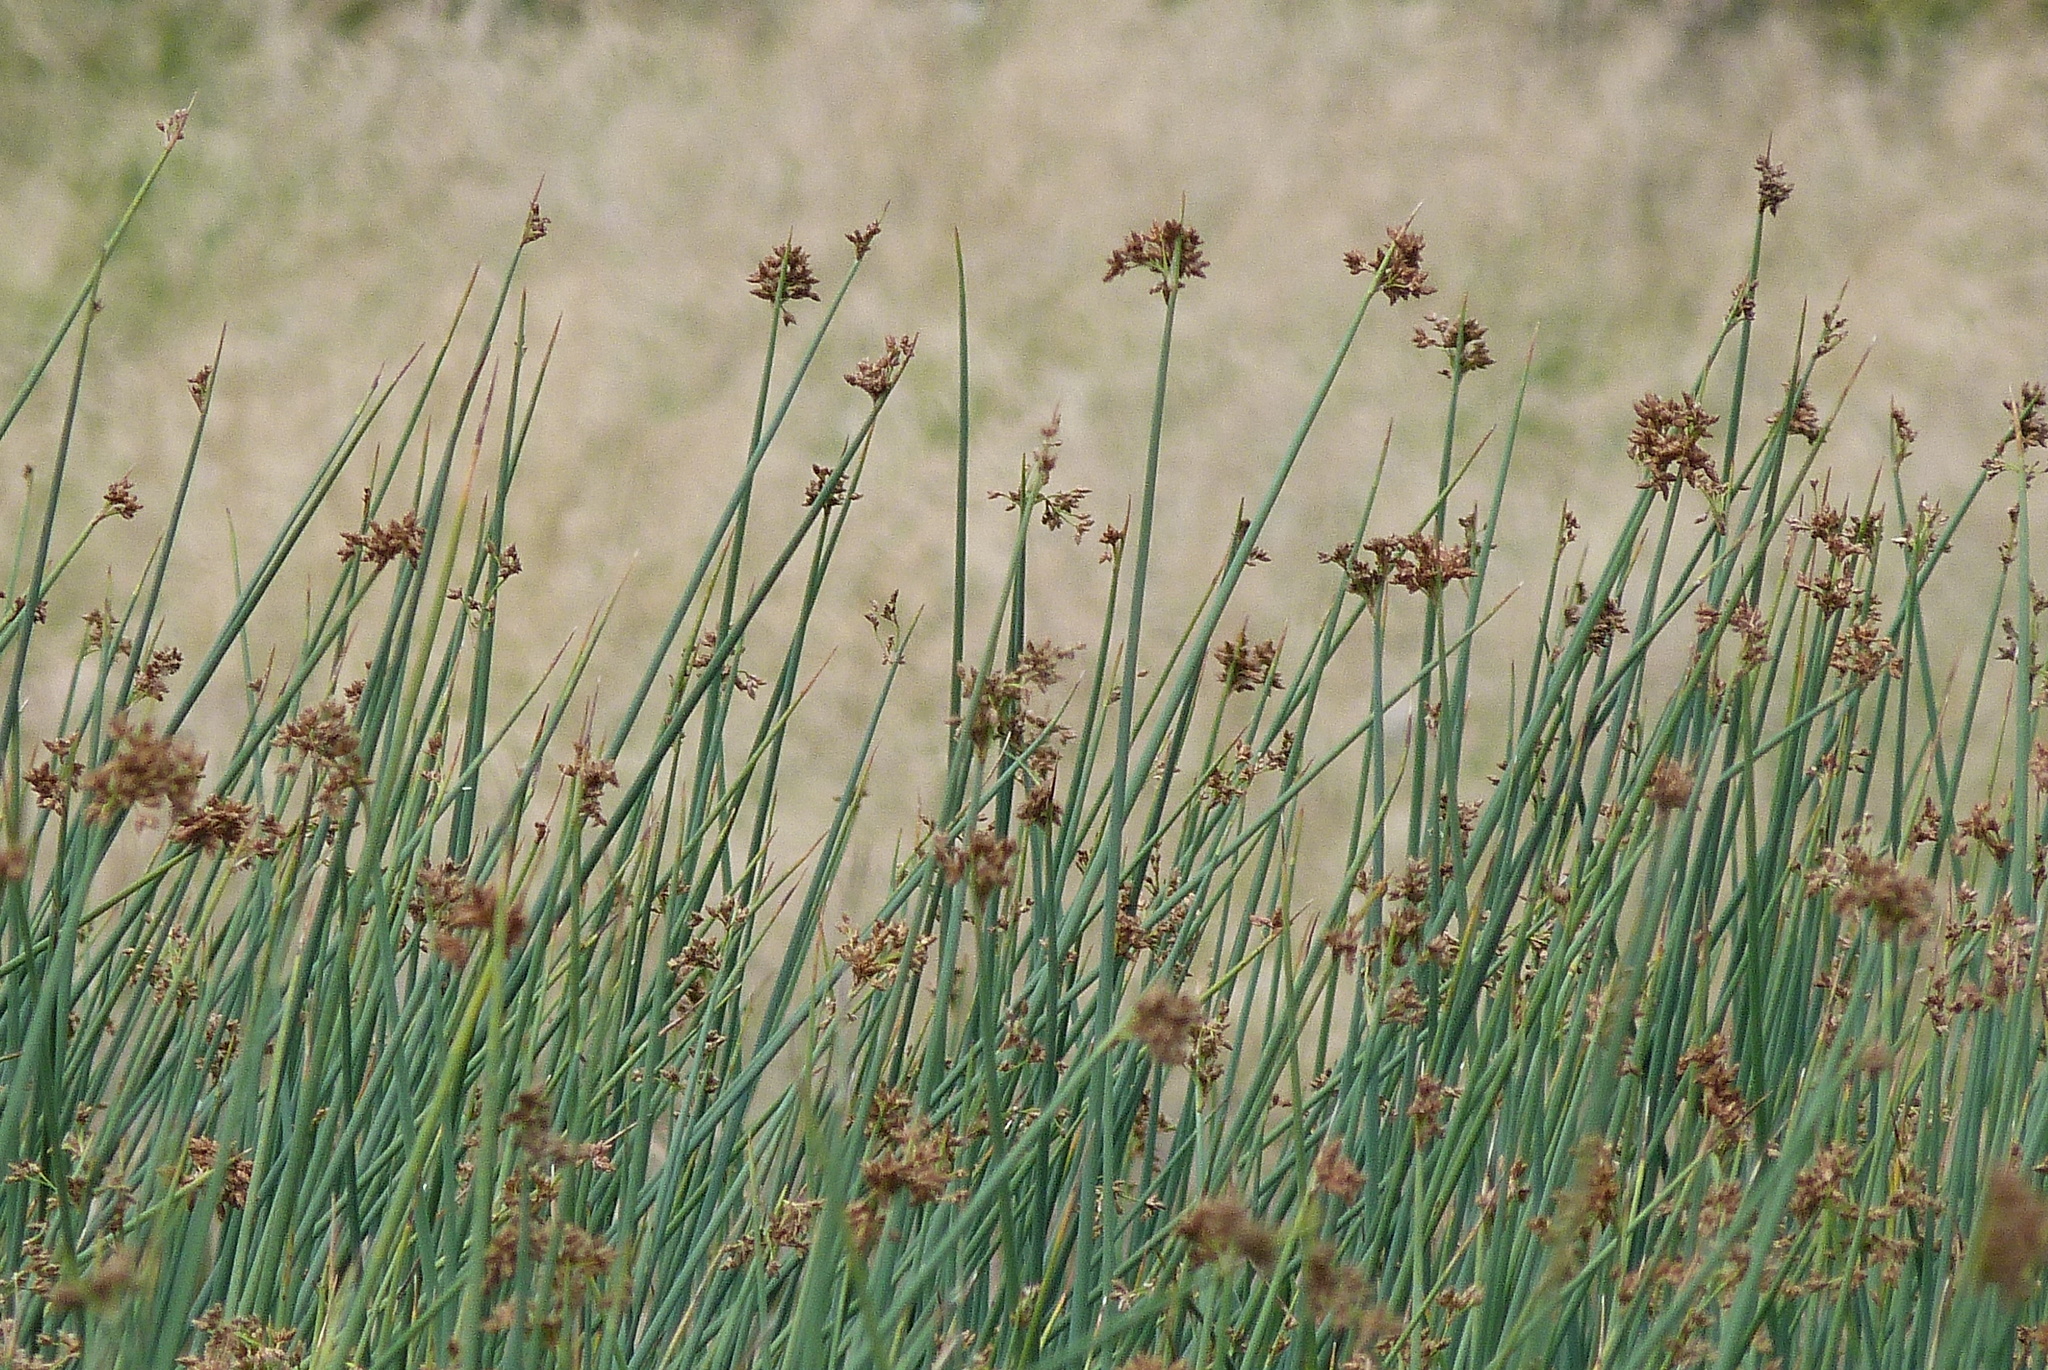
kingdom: Plantae
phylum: Tracheophyta
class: Liliopsida
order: Poales
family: Cyperaceae
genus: Schoenoplectus
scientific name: Schoenoplectus tabernaemontani
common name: Grey club-rush
